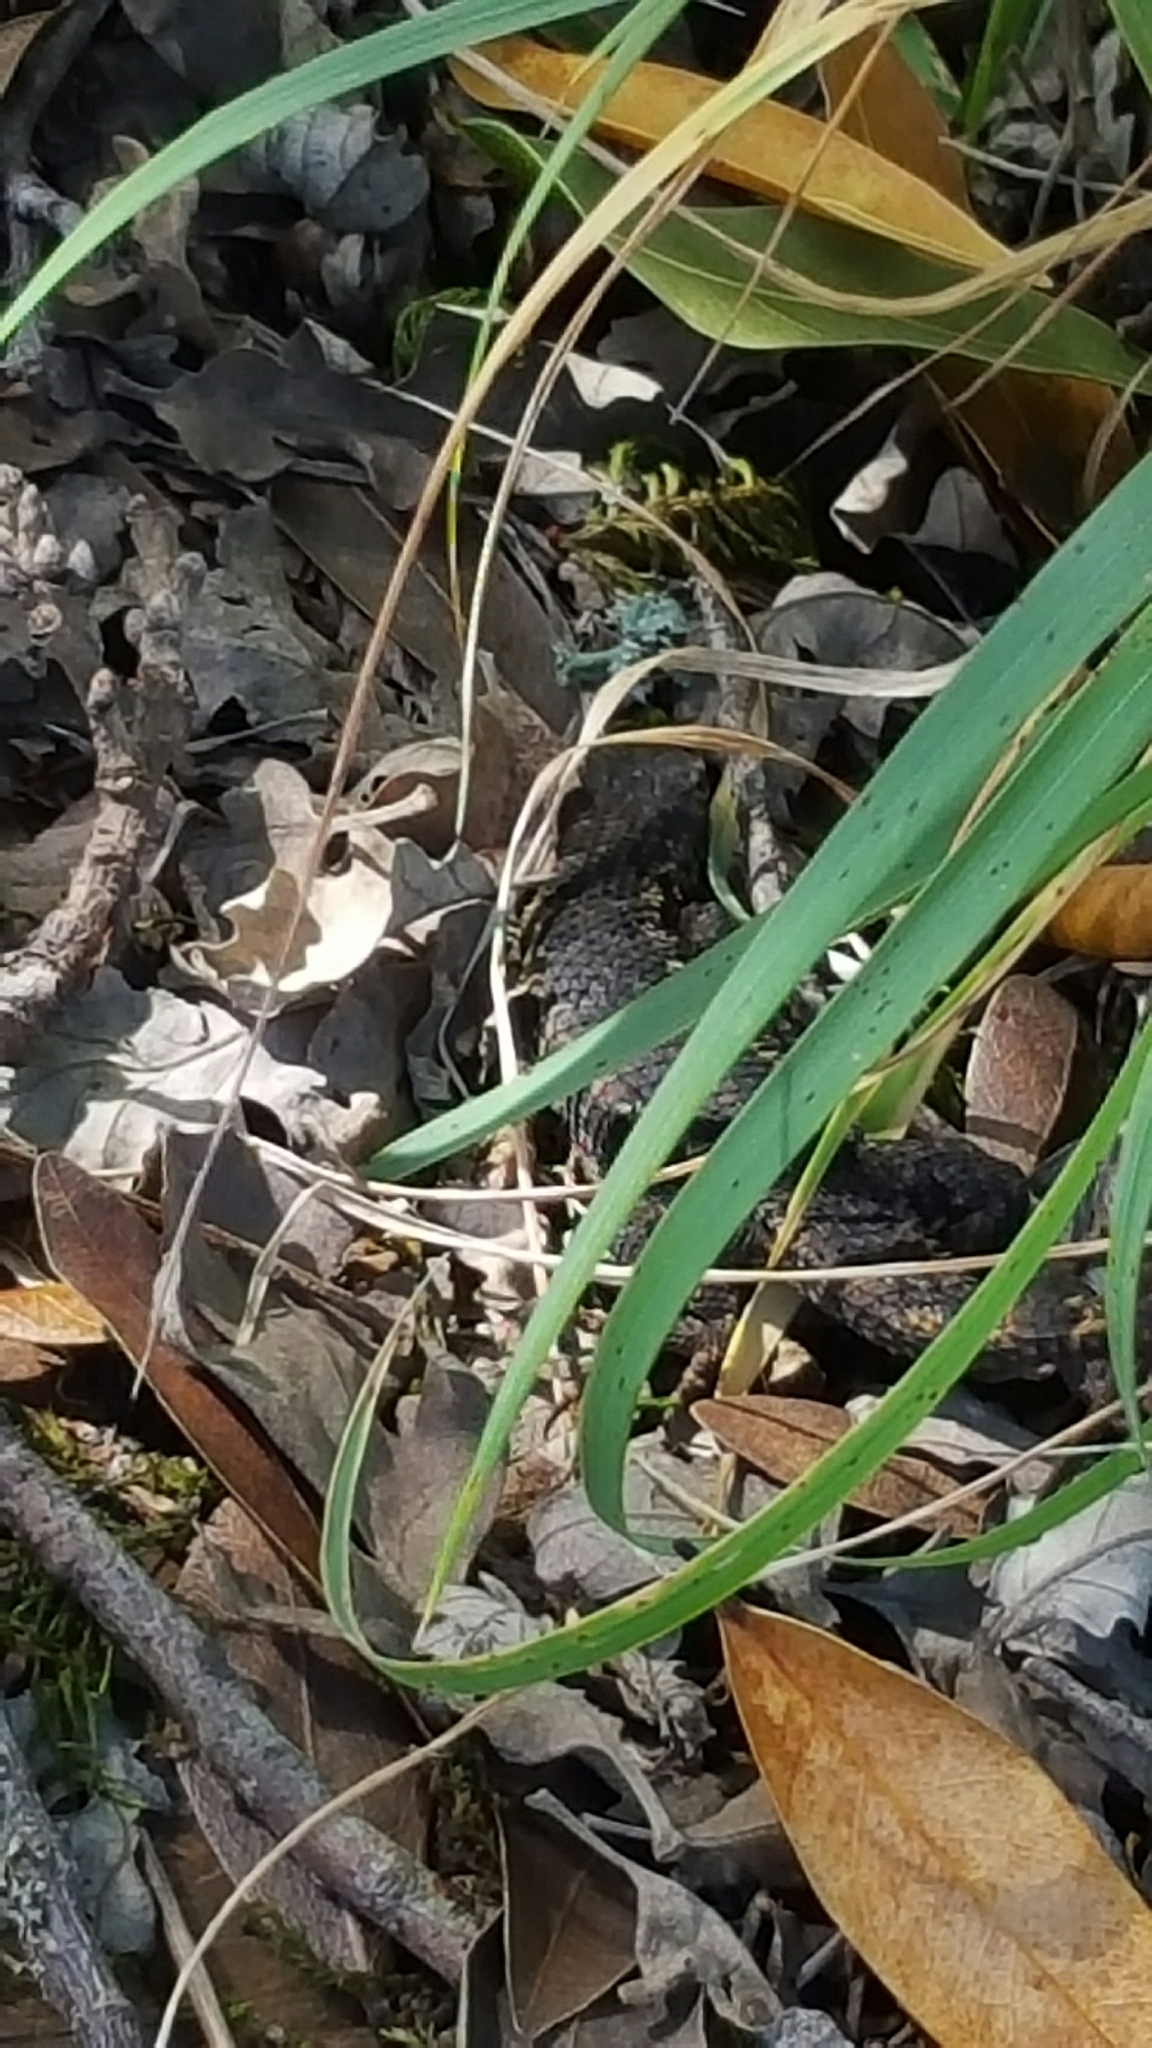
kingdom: Animalia
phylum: Chordata
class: Squamata
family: Phrynosomatidae
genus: Sceloporus
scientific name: Sceloporus occidentalis
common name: Western fence lizard
